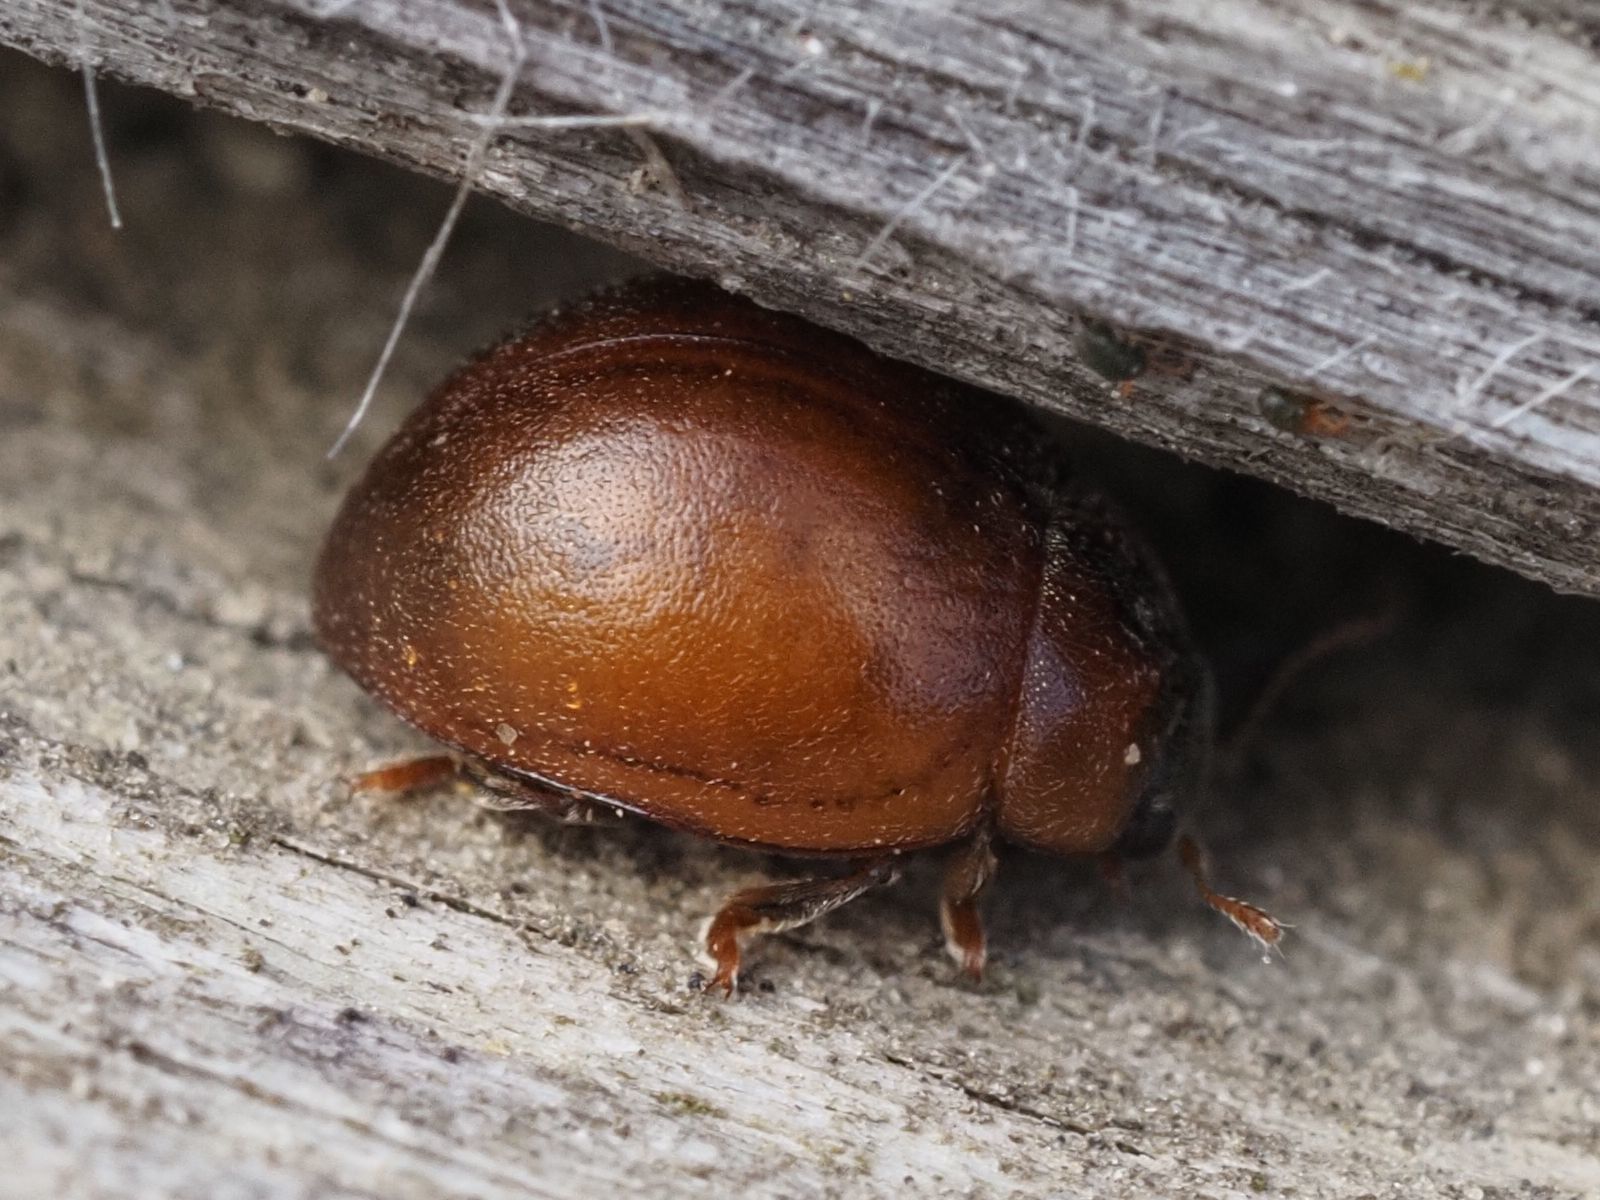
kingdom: Animalia
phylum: Arthropoda
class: Insecta
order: Coleoptera
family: Coccinellidae
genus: Cynegetis
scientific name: Cynegetis impunctata
